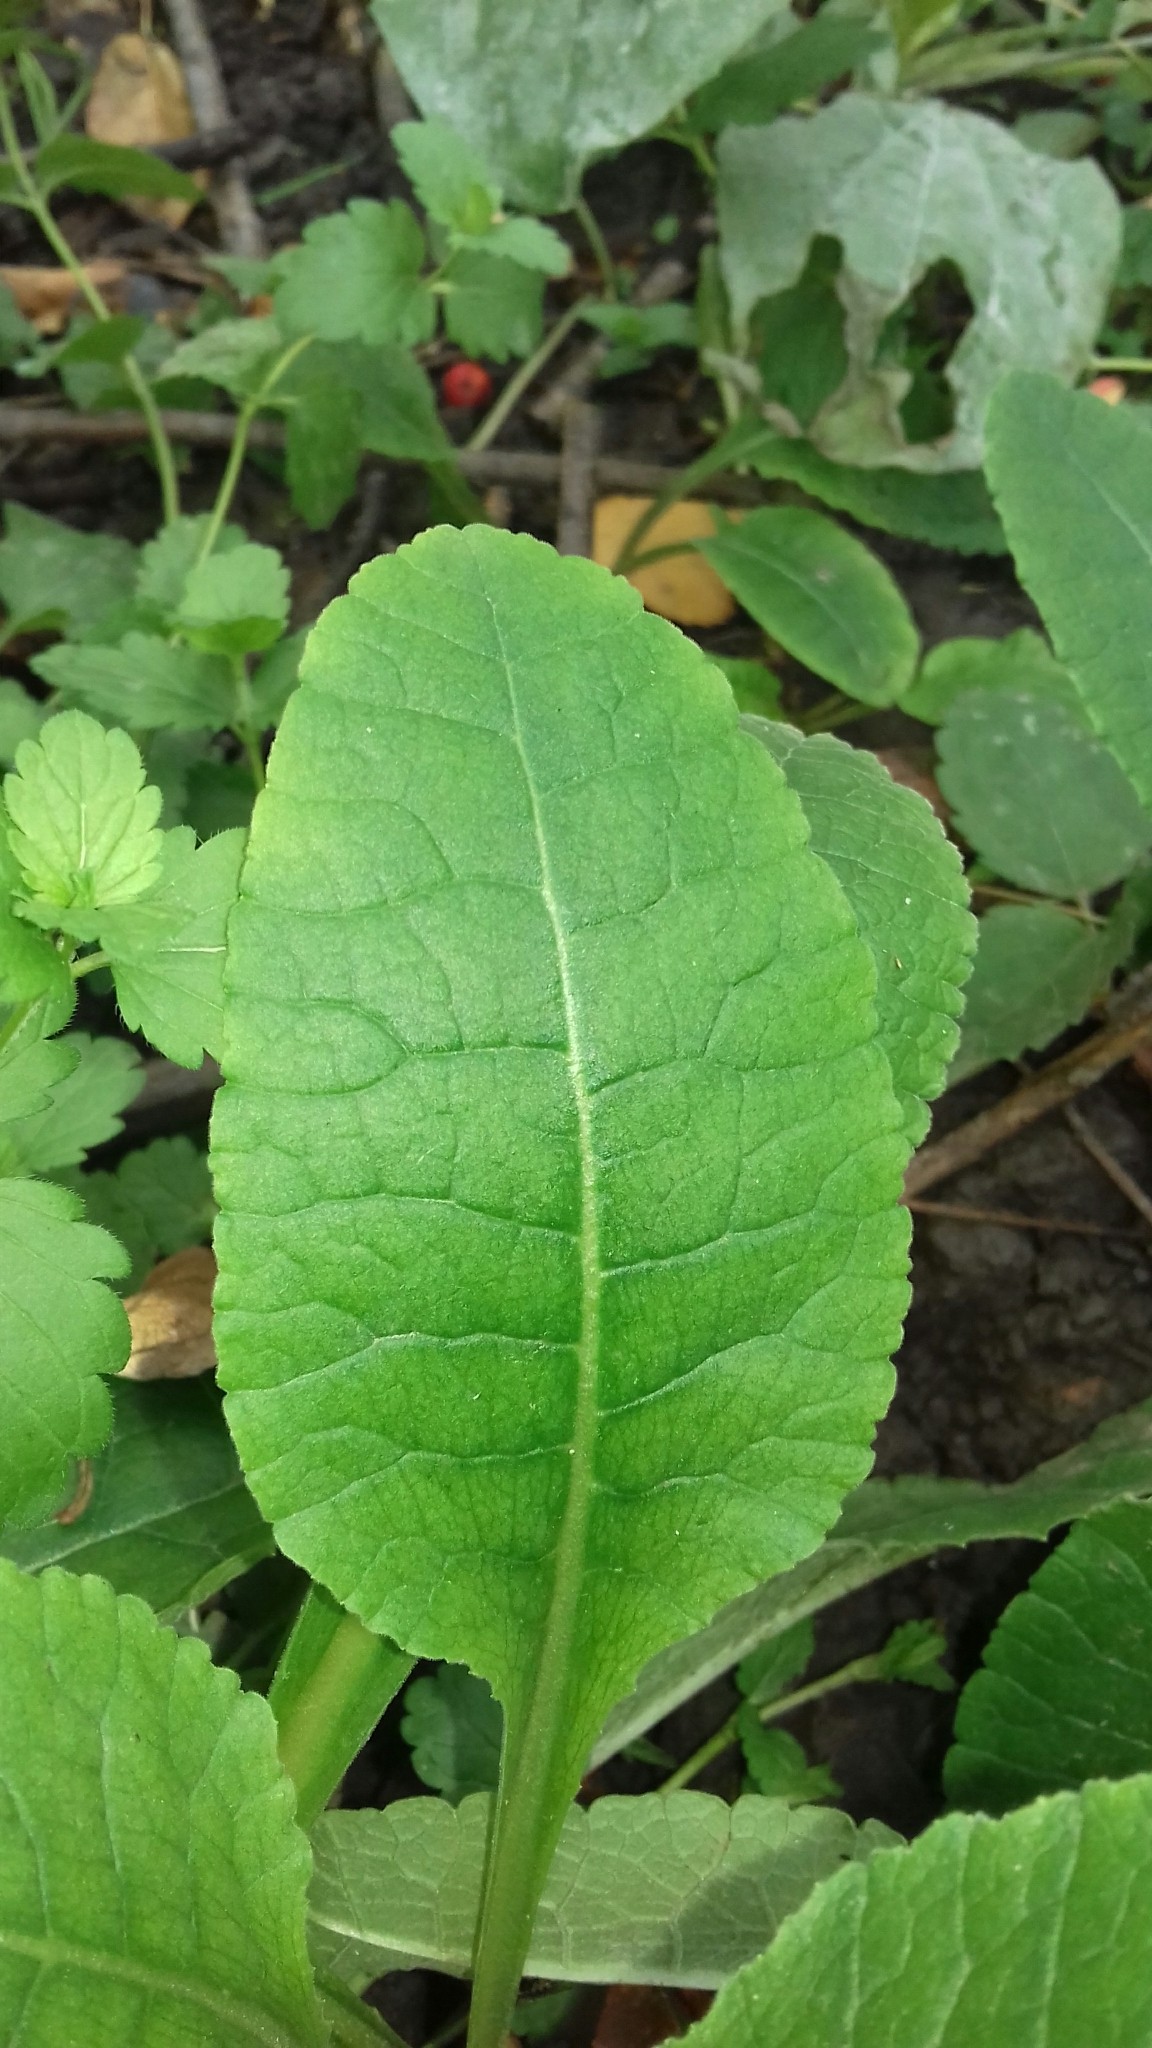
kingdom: Plantae
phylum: Tracheophyta
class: Magnoliopsida
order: Ericales
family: Primulaceae
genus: Primula
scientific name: Primula veris
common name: Cowslip
